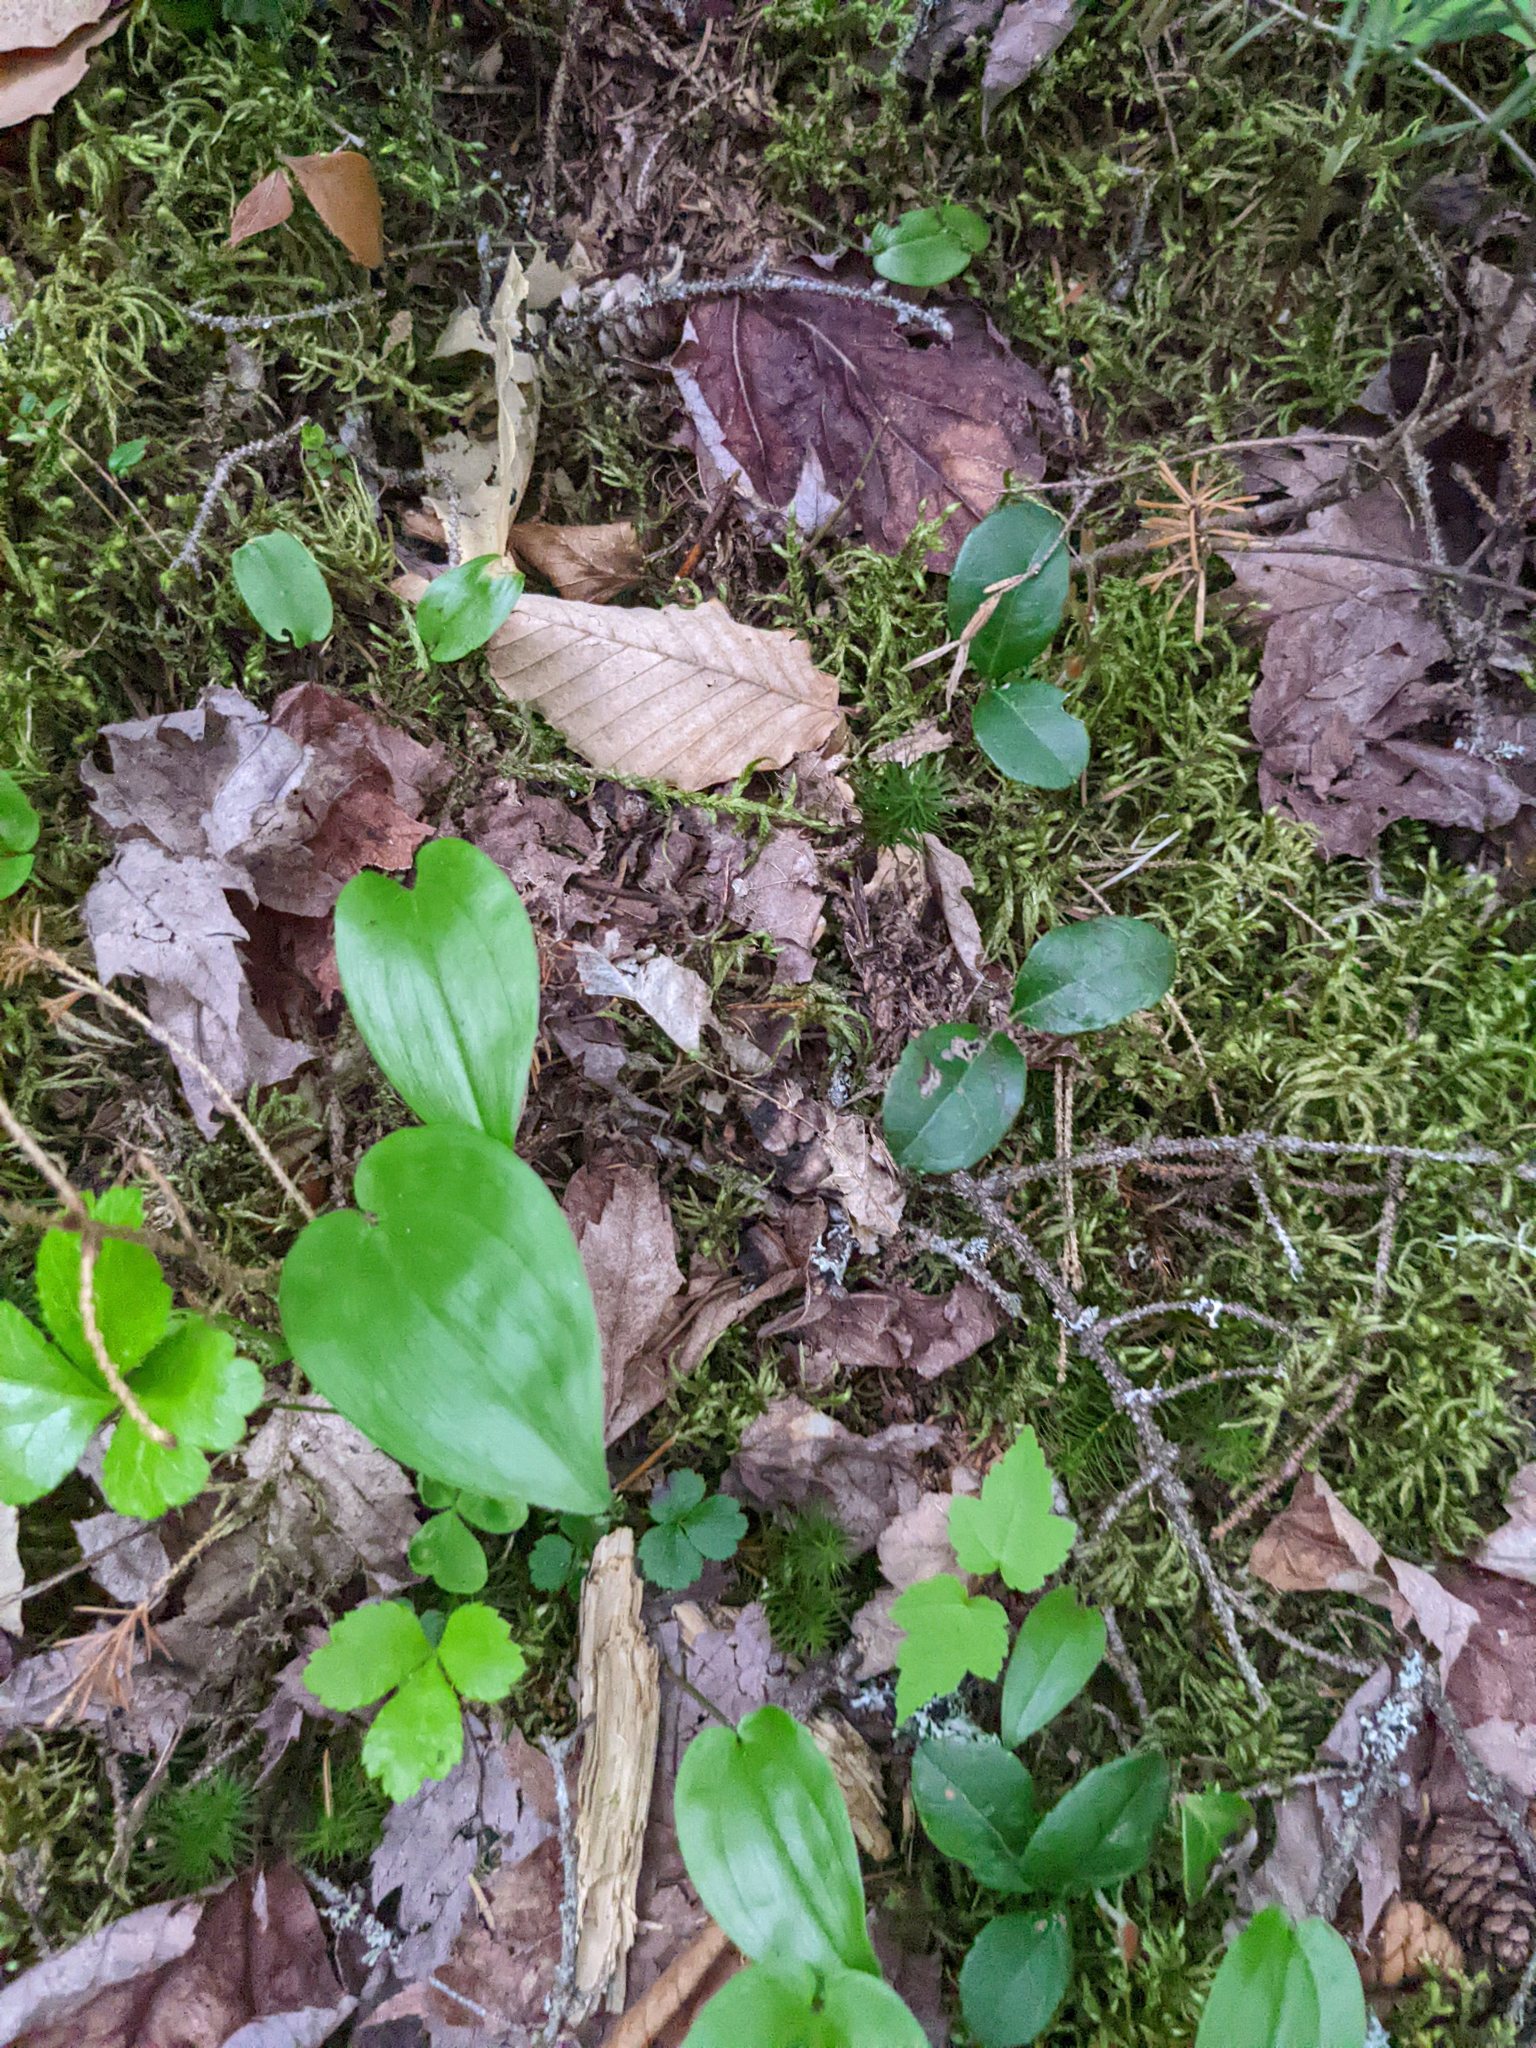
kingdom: Plantae
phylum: Tracheophyta
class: Liliopsida
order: Asparagales
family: Asparagaceae
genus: Maianthemum
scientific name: Maianthemum canadense
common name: False lily-of-the-valley
